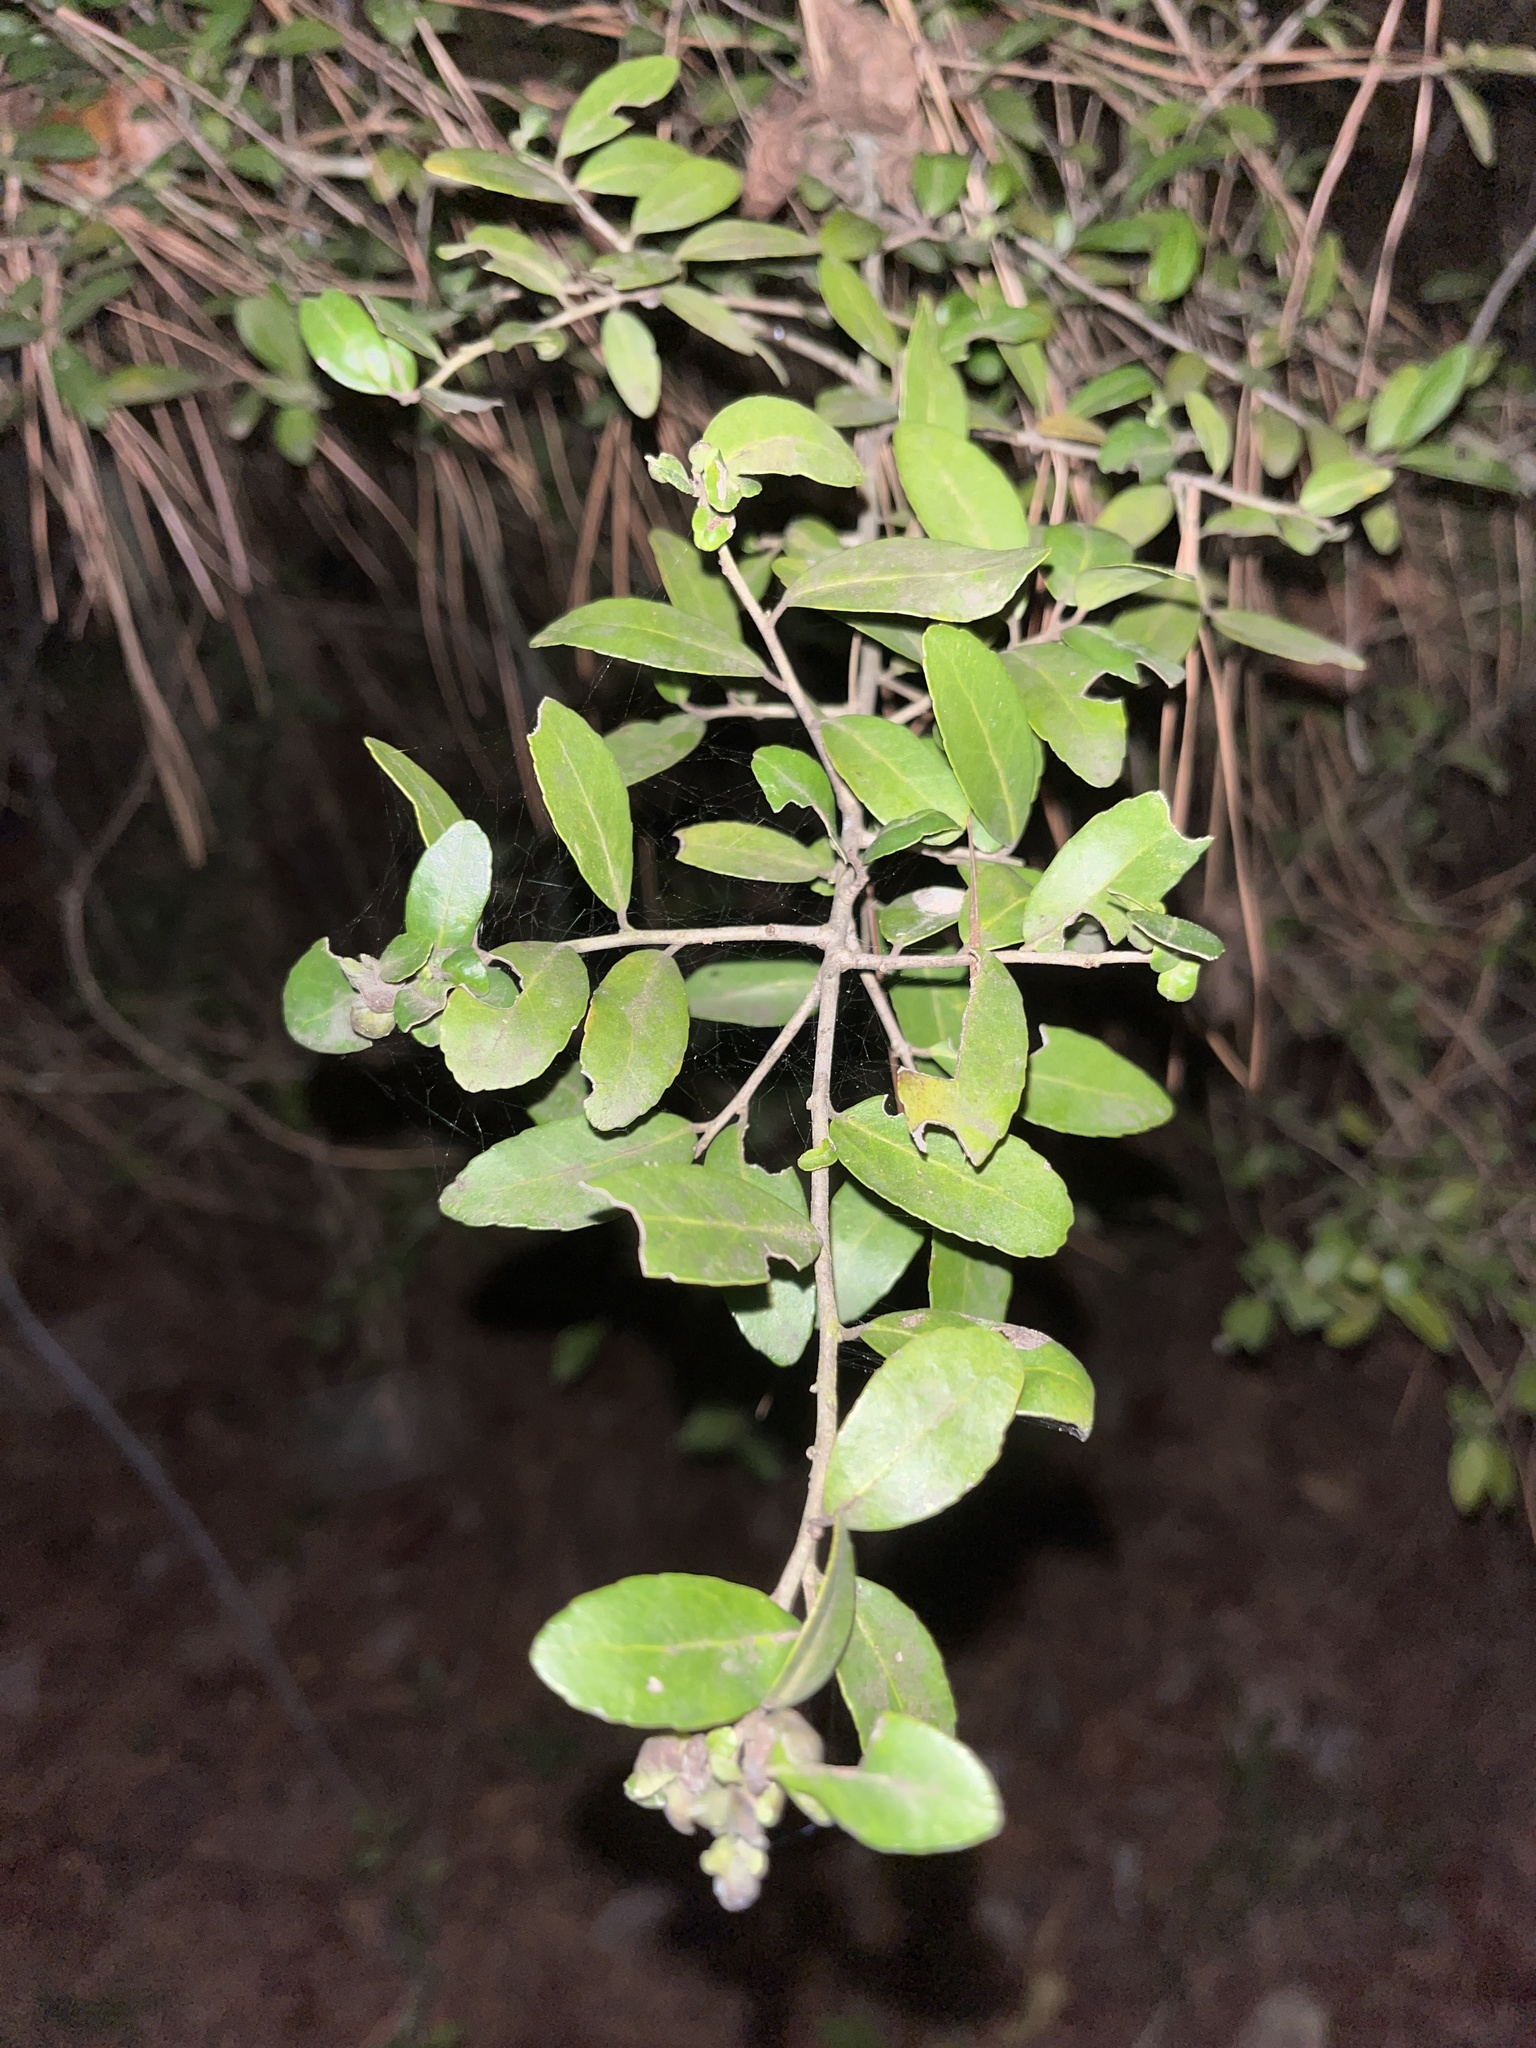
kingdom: Plantae
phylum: Tracheophyta
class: Magnoliopsida
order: Aquifoliales
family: Aquifoliaceae
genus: Ilex
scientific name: Ilex vomitoria
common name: Yaupon holly
